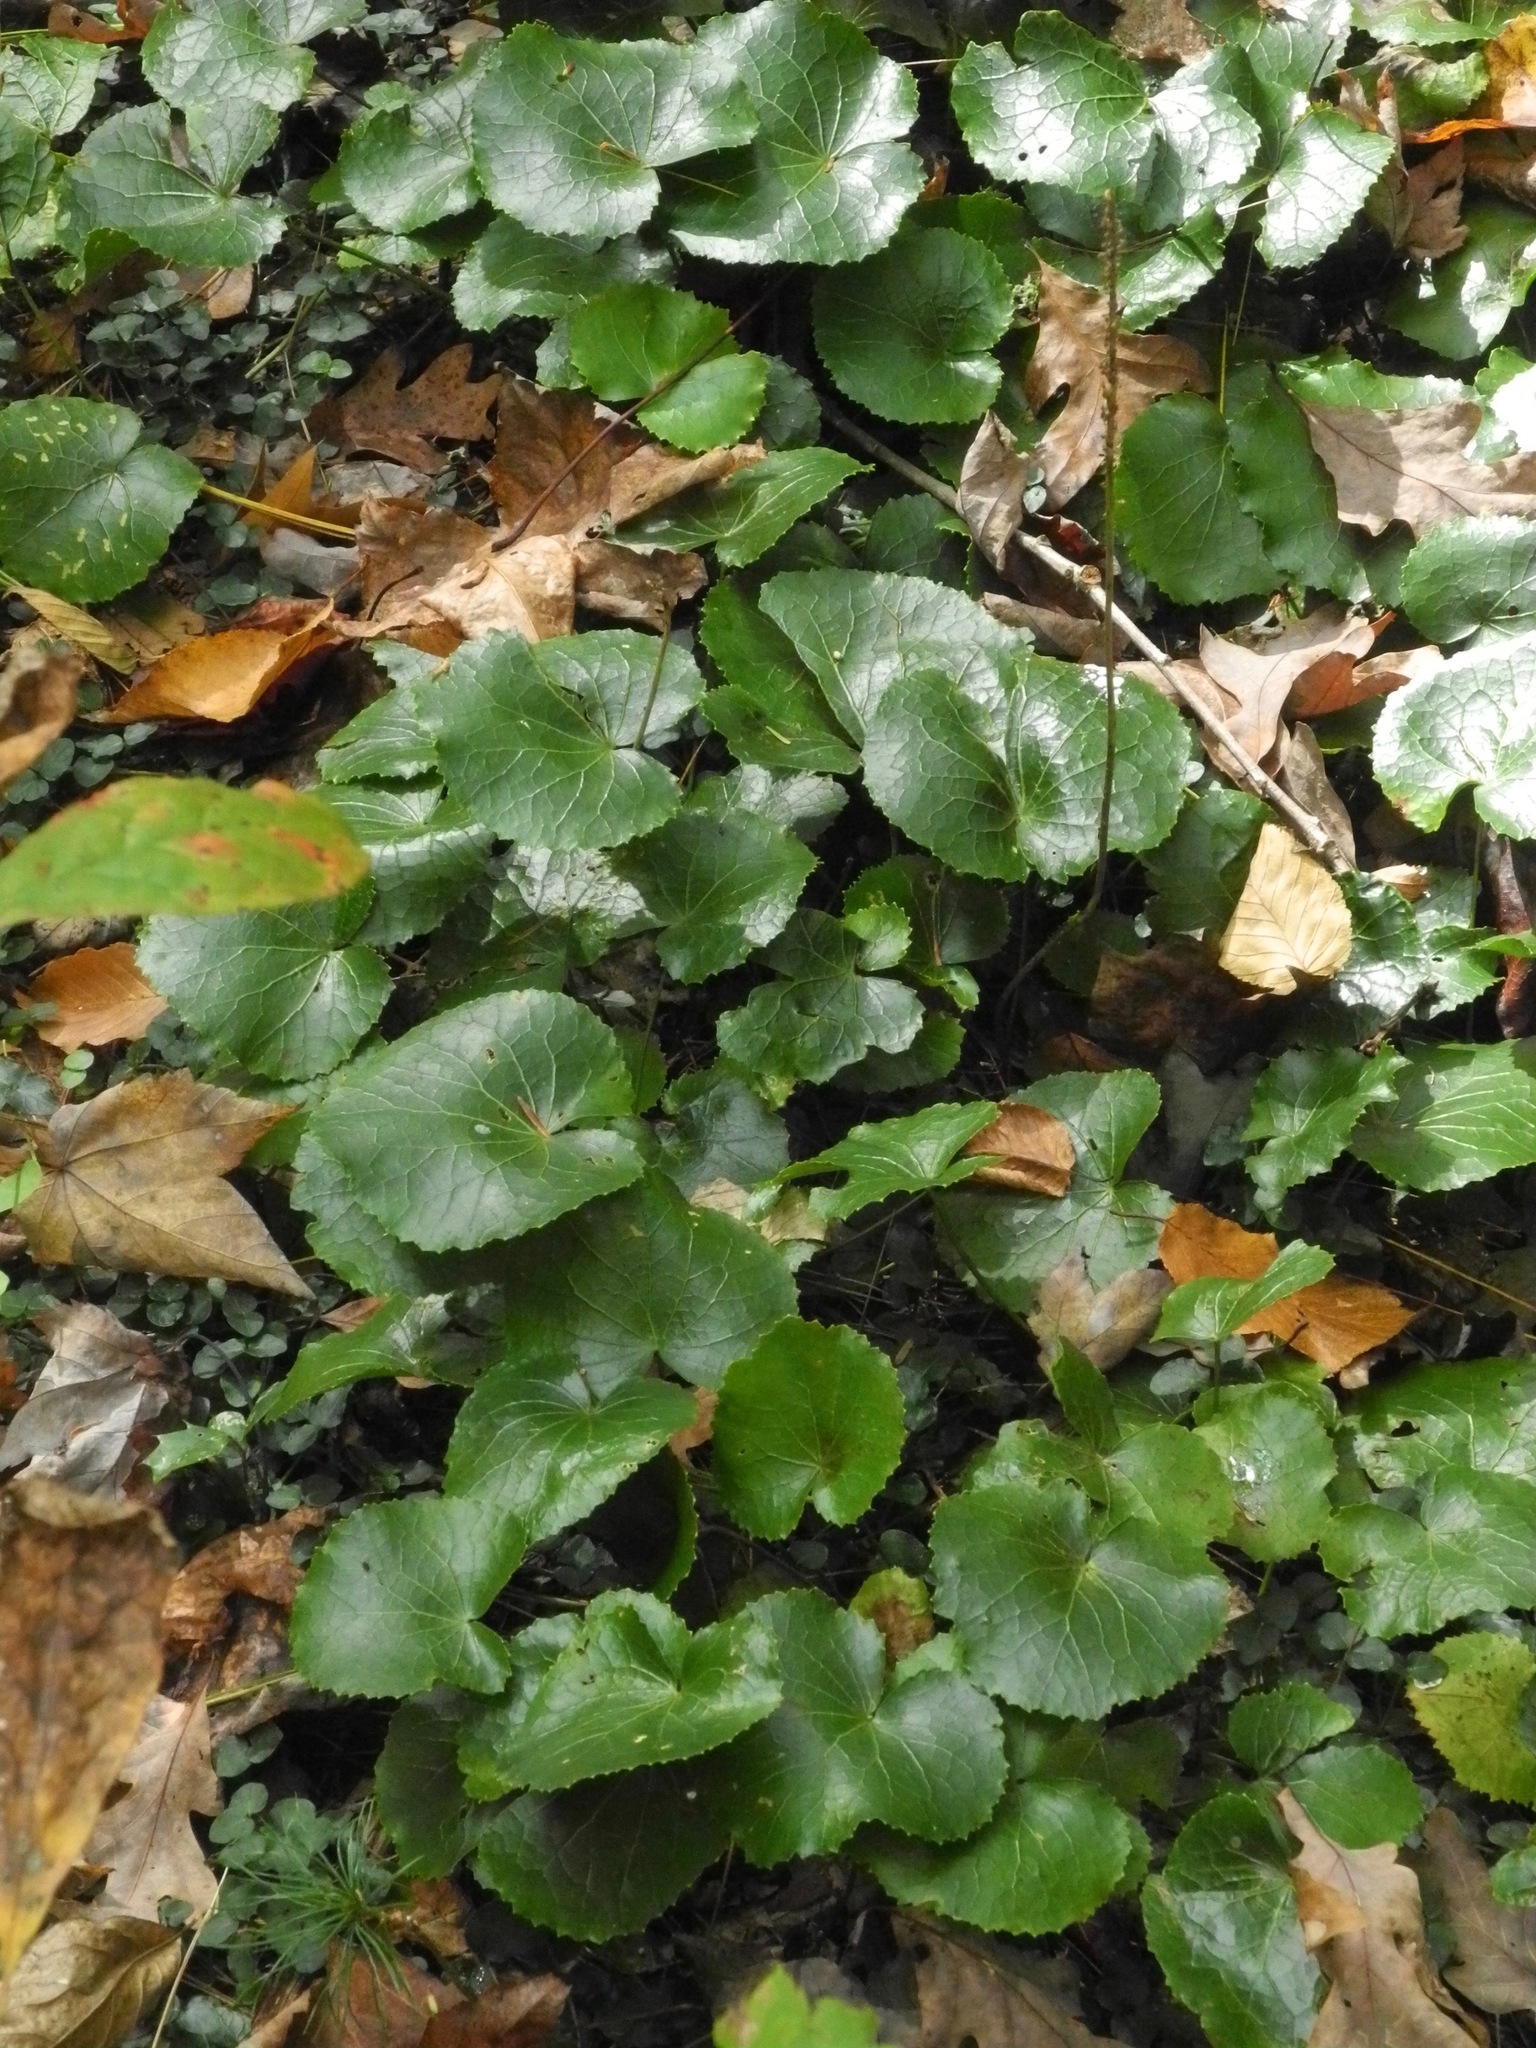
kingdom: Plantae
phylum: Tracheophyta
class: Magnoliopsida
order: Ericales
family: Diapensiaceae
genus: Galax
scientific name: Galax urceolata
